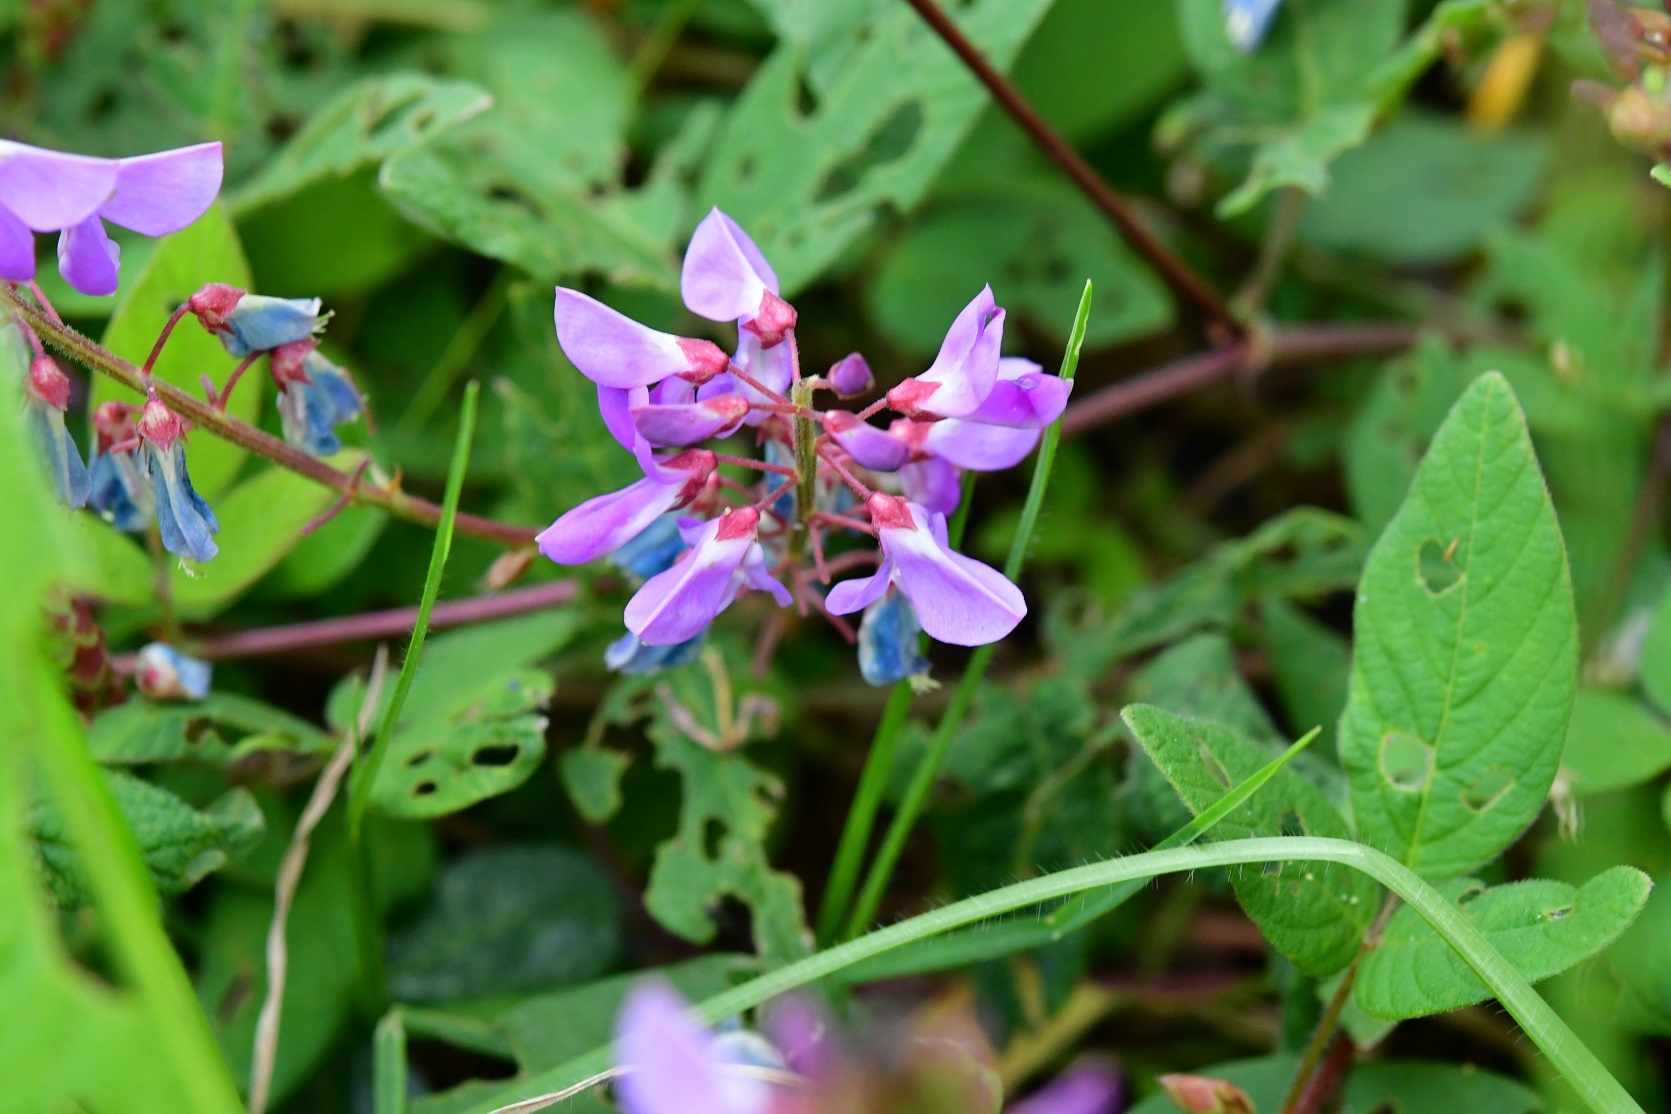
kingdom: Plantae
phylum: Tracheophyta
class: Magnoliopsida
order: Fabales
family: Fabaceae
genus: Desmodium
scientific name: Desmodium pringlei
